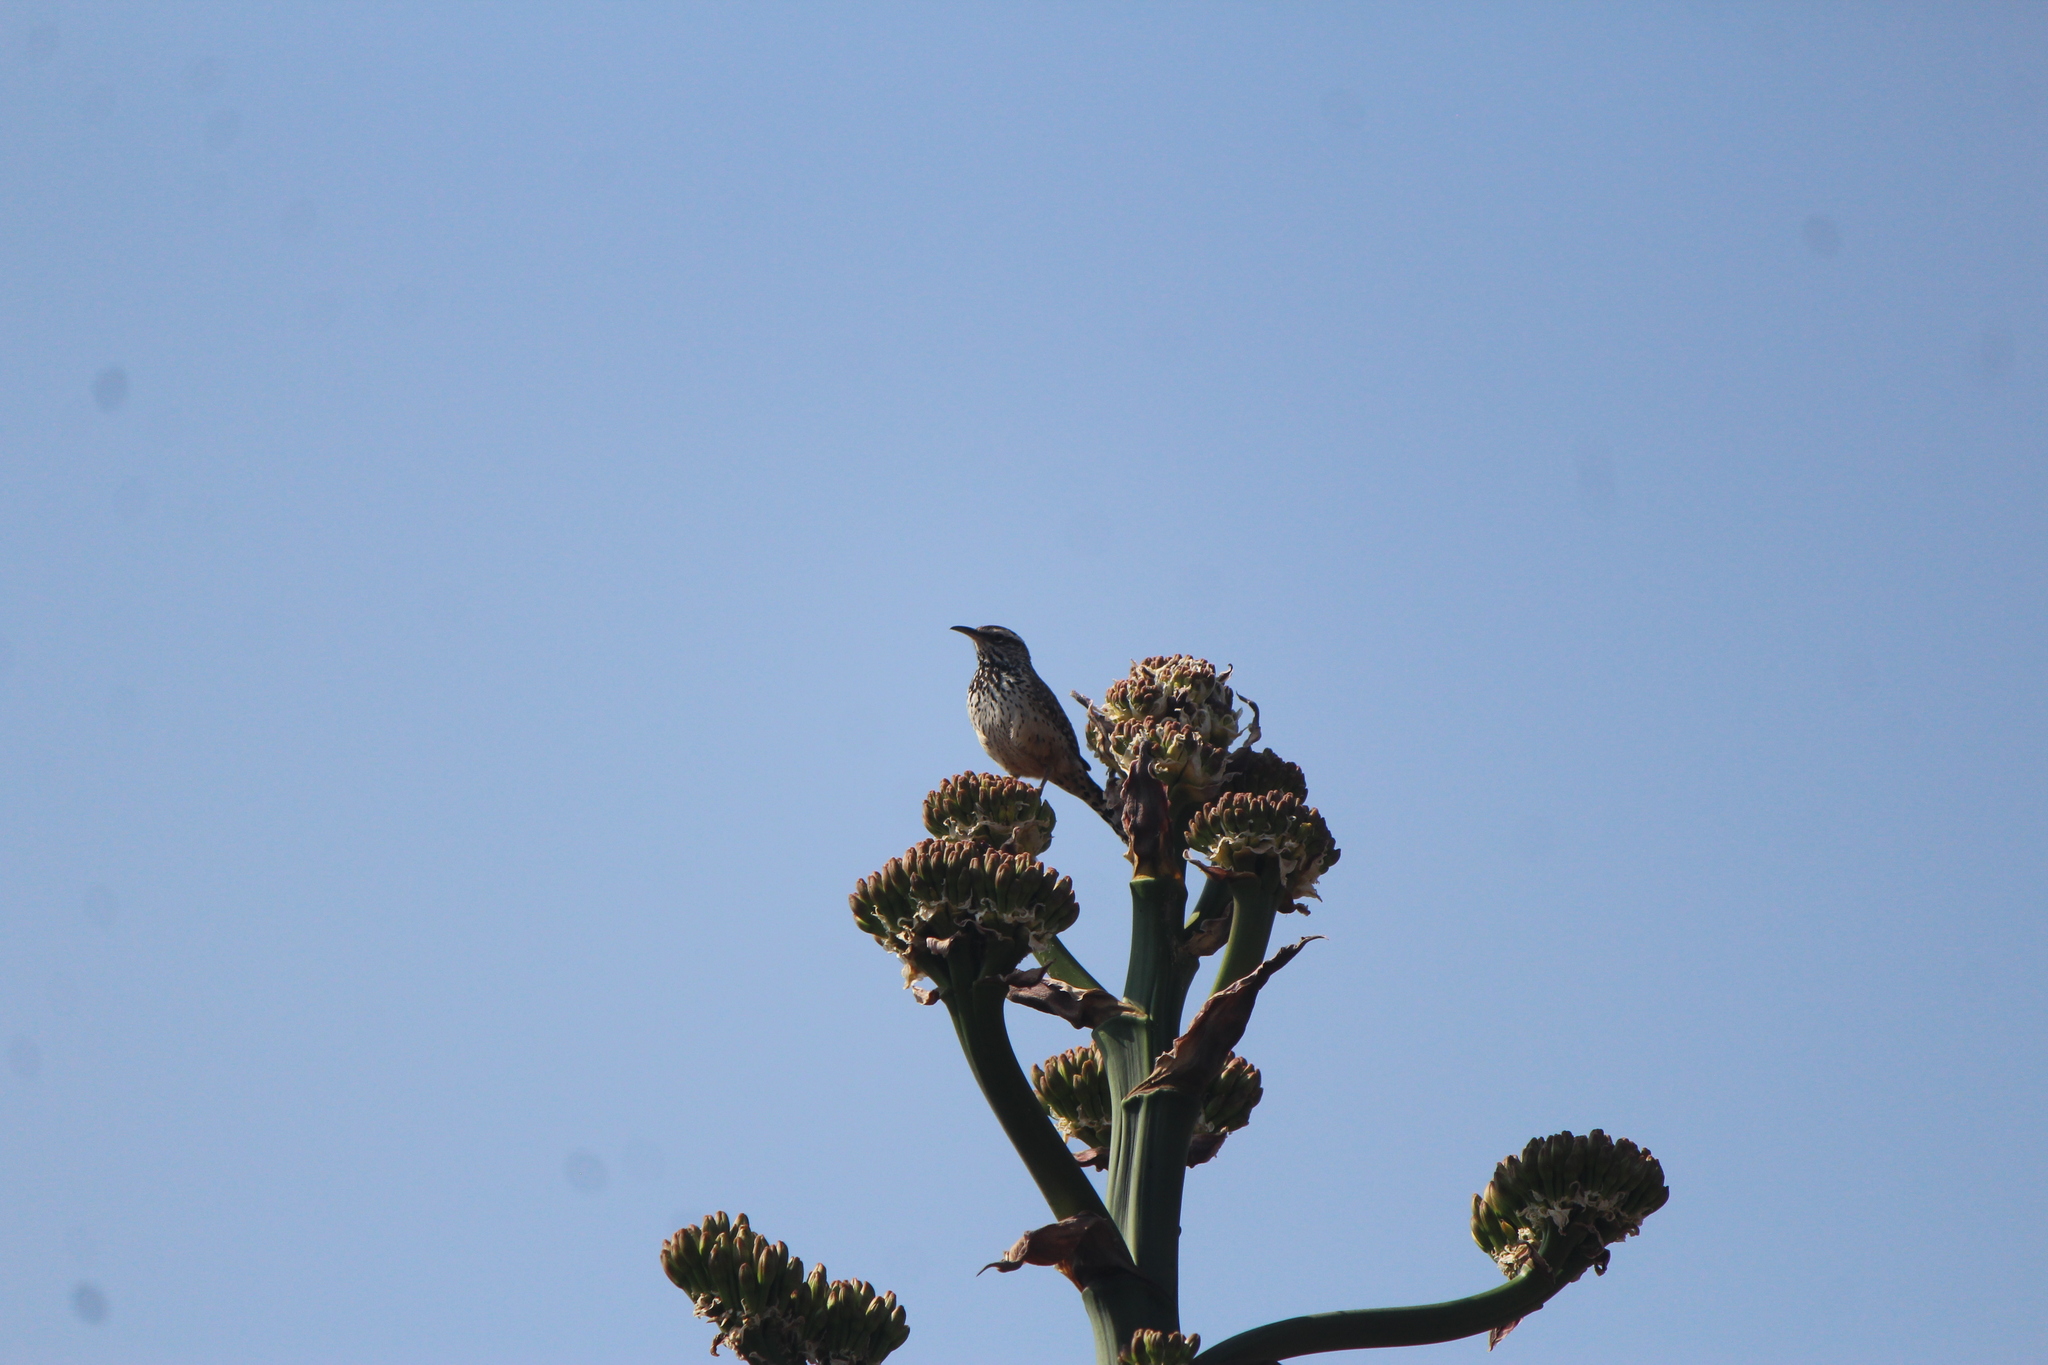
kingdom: Animalia
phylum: Chordata
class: Aves
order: Passeriformes
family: Troglodytidae
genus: Campylorhynchus
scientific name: Campylorhynchus brunneicapillus
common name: Cactus wren
